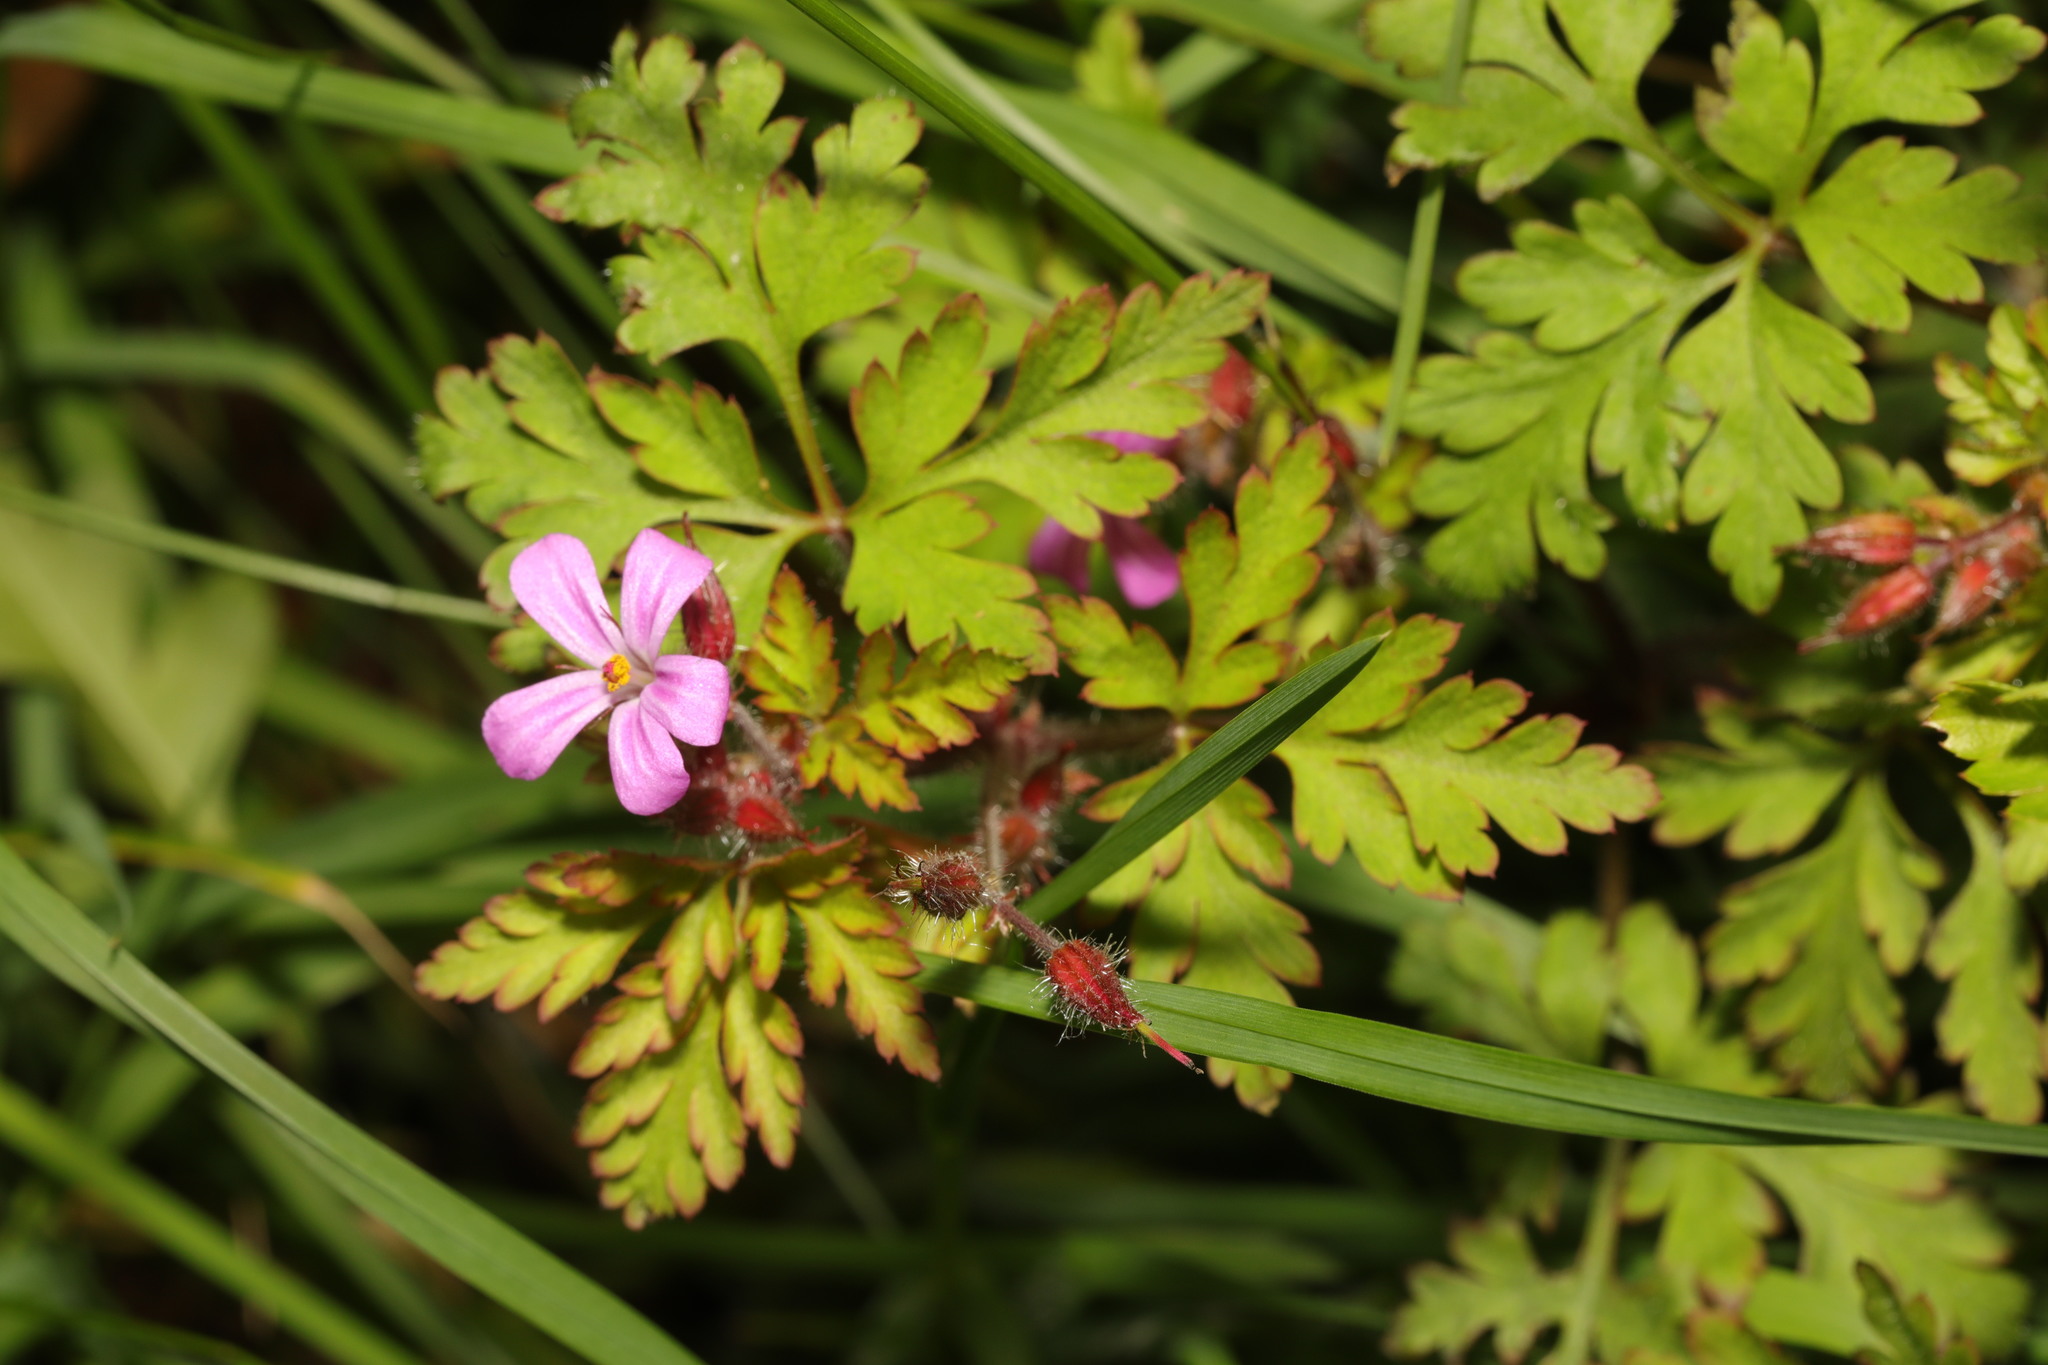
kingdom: Plantae
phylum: Tracheophyta
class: Magnoliopsida
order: Geraniales
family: Geraniaceae
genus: Geranium
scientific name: Geranium robertianum
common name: Herb-robert
